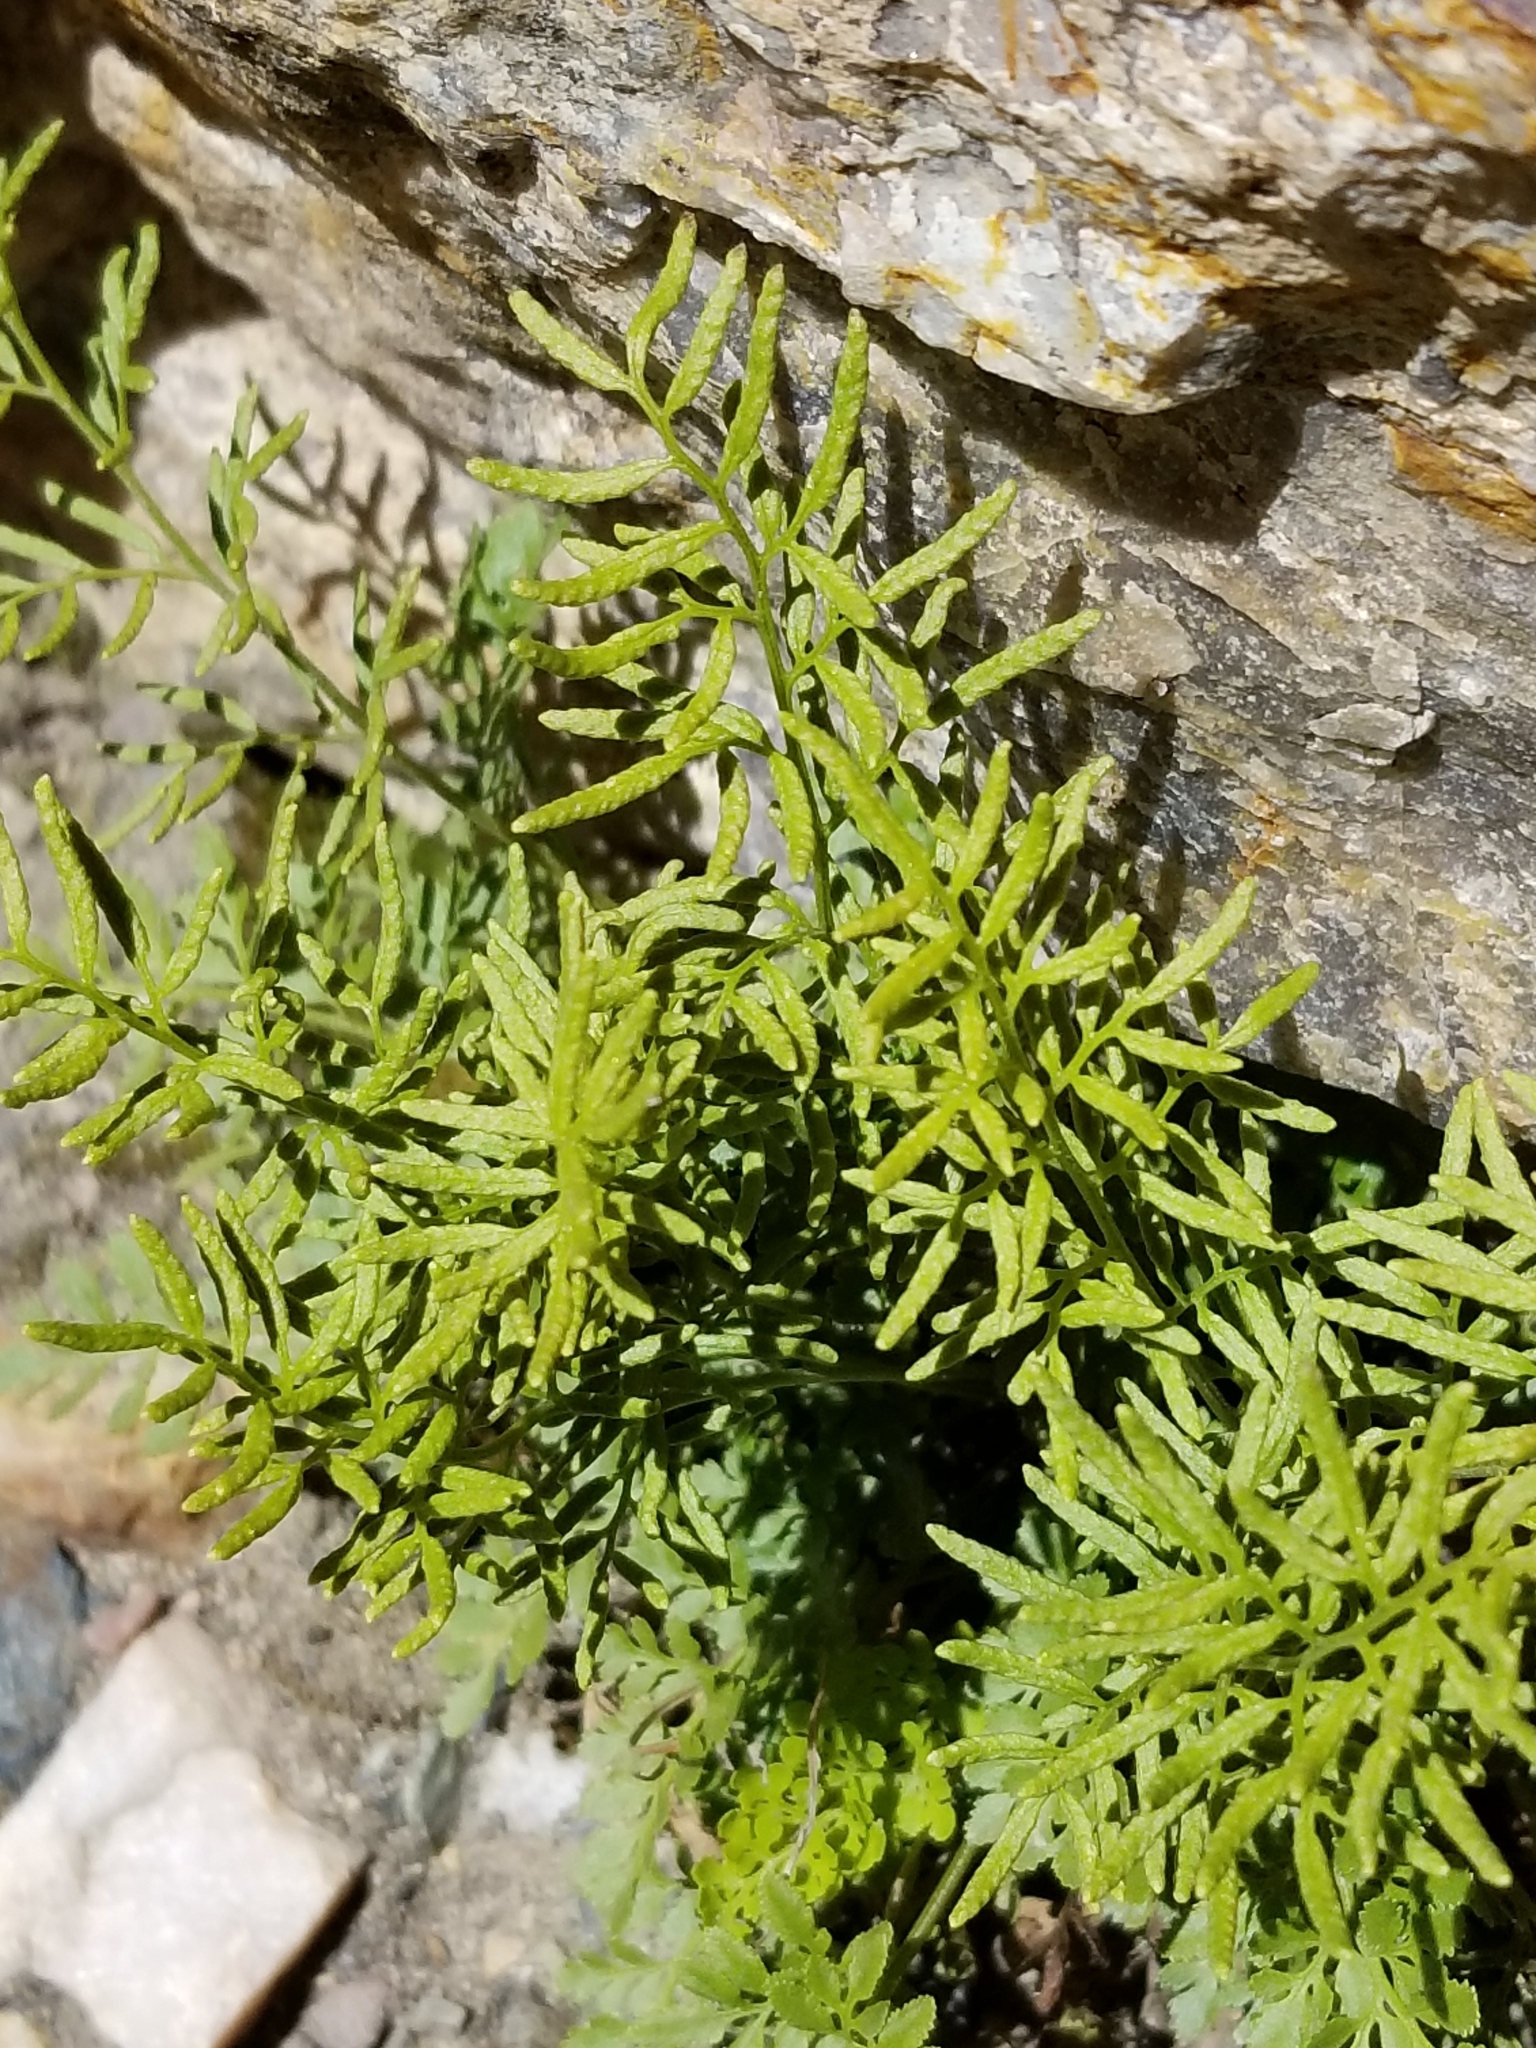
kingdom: Plantae
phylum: Tracheophyta
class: Polypodiopsida
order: Polypodiales
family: Pteridaceae
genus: Cryptogramma
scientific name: Cryptogramma acrostichoides
